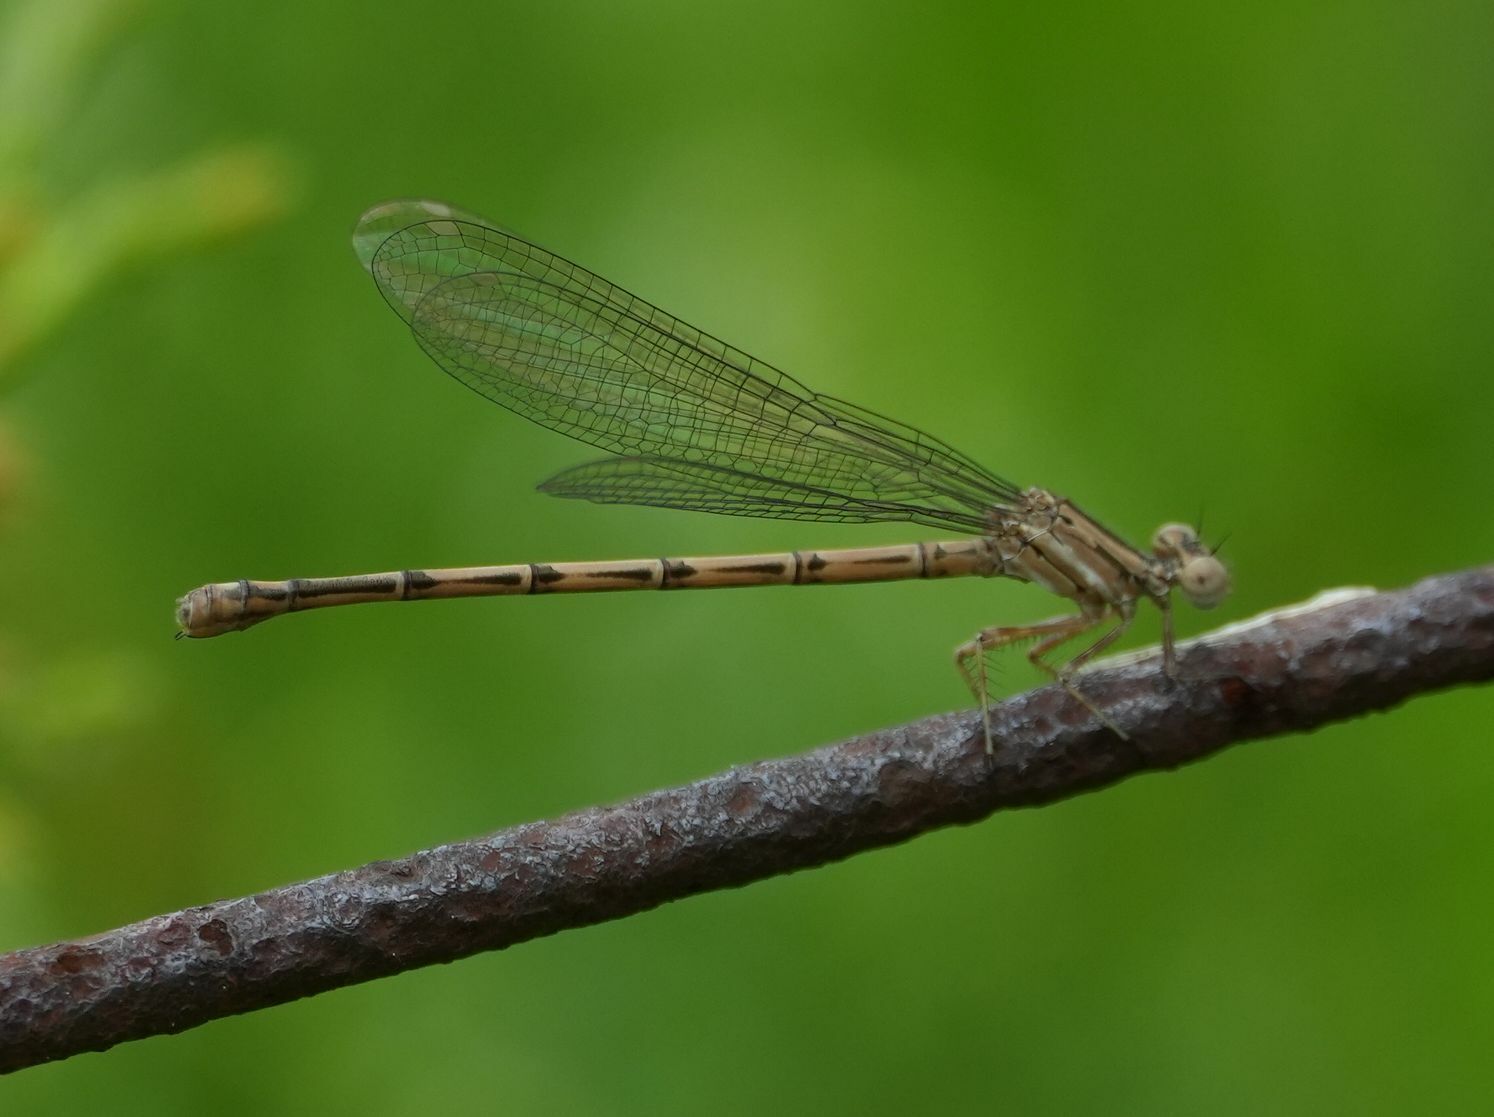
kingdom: Animalia
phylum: Arthropoda
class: Insecta
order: Odonata
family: Coenagrionidae
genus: Argia
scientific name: Argia fumipennis
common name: Variable dancer
